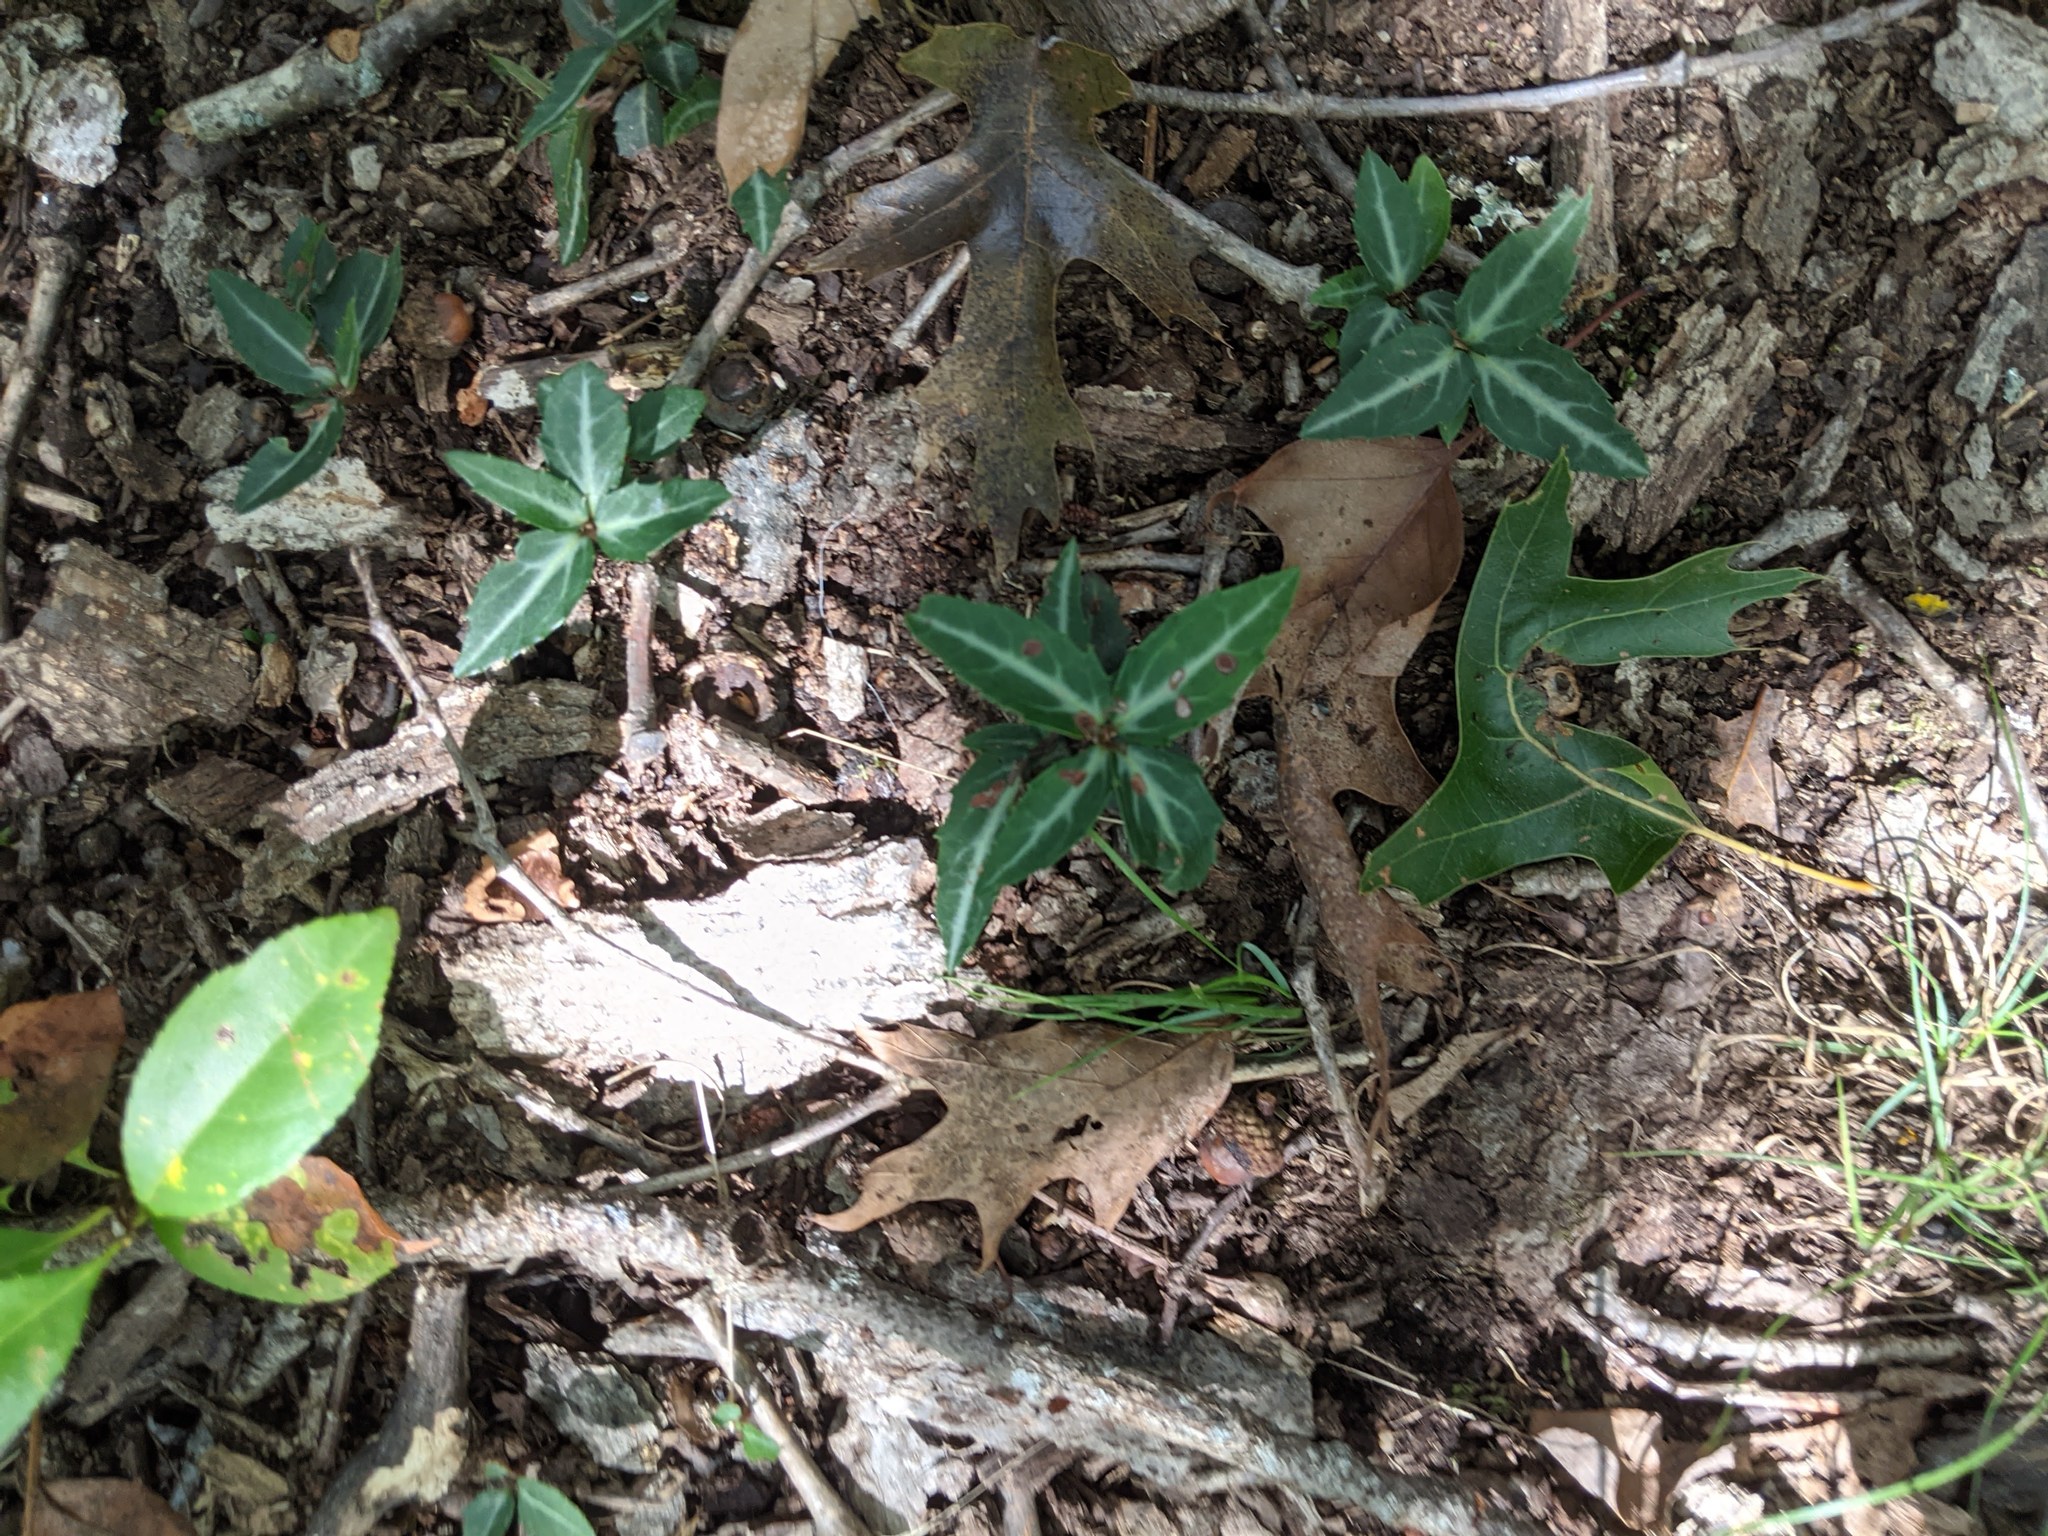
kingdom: Plantae
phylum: Tracheophyta
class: Magnoliopsida
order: Ericales
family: Ericaceae
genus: Chimaphila
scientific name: Chimaphila maculata
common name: Spotted pipsissewa
